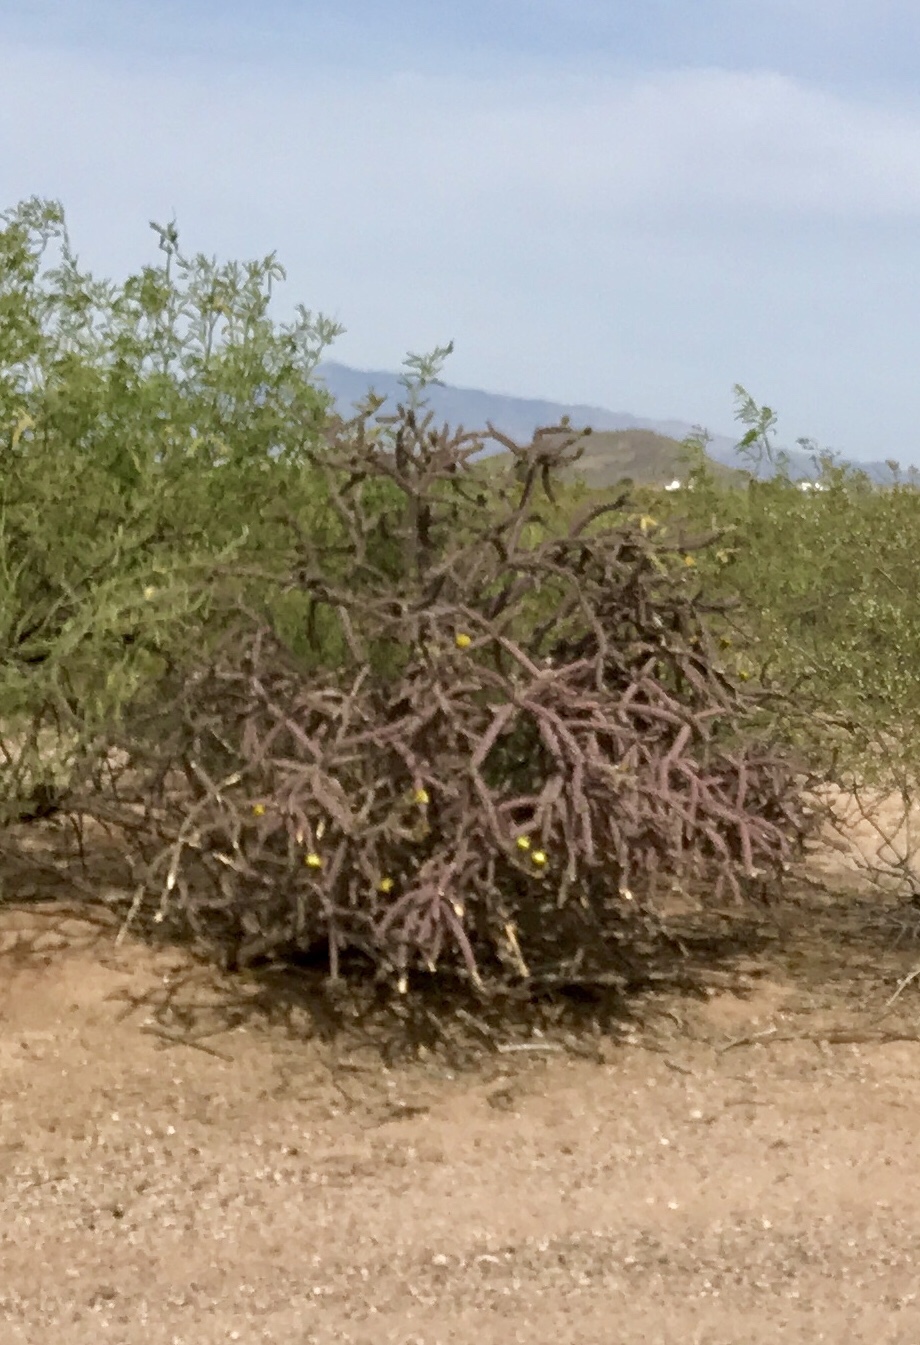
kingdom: Plantae
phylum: Tracheophyta
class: Magnoliopsida
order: Caryophyllales
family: Cactaceae
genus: Cylindropuntia
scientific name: Cylindropuntia thurberi
